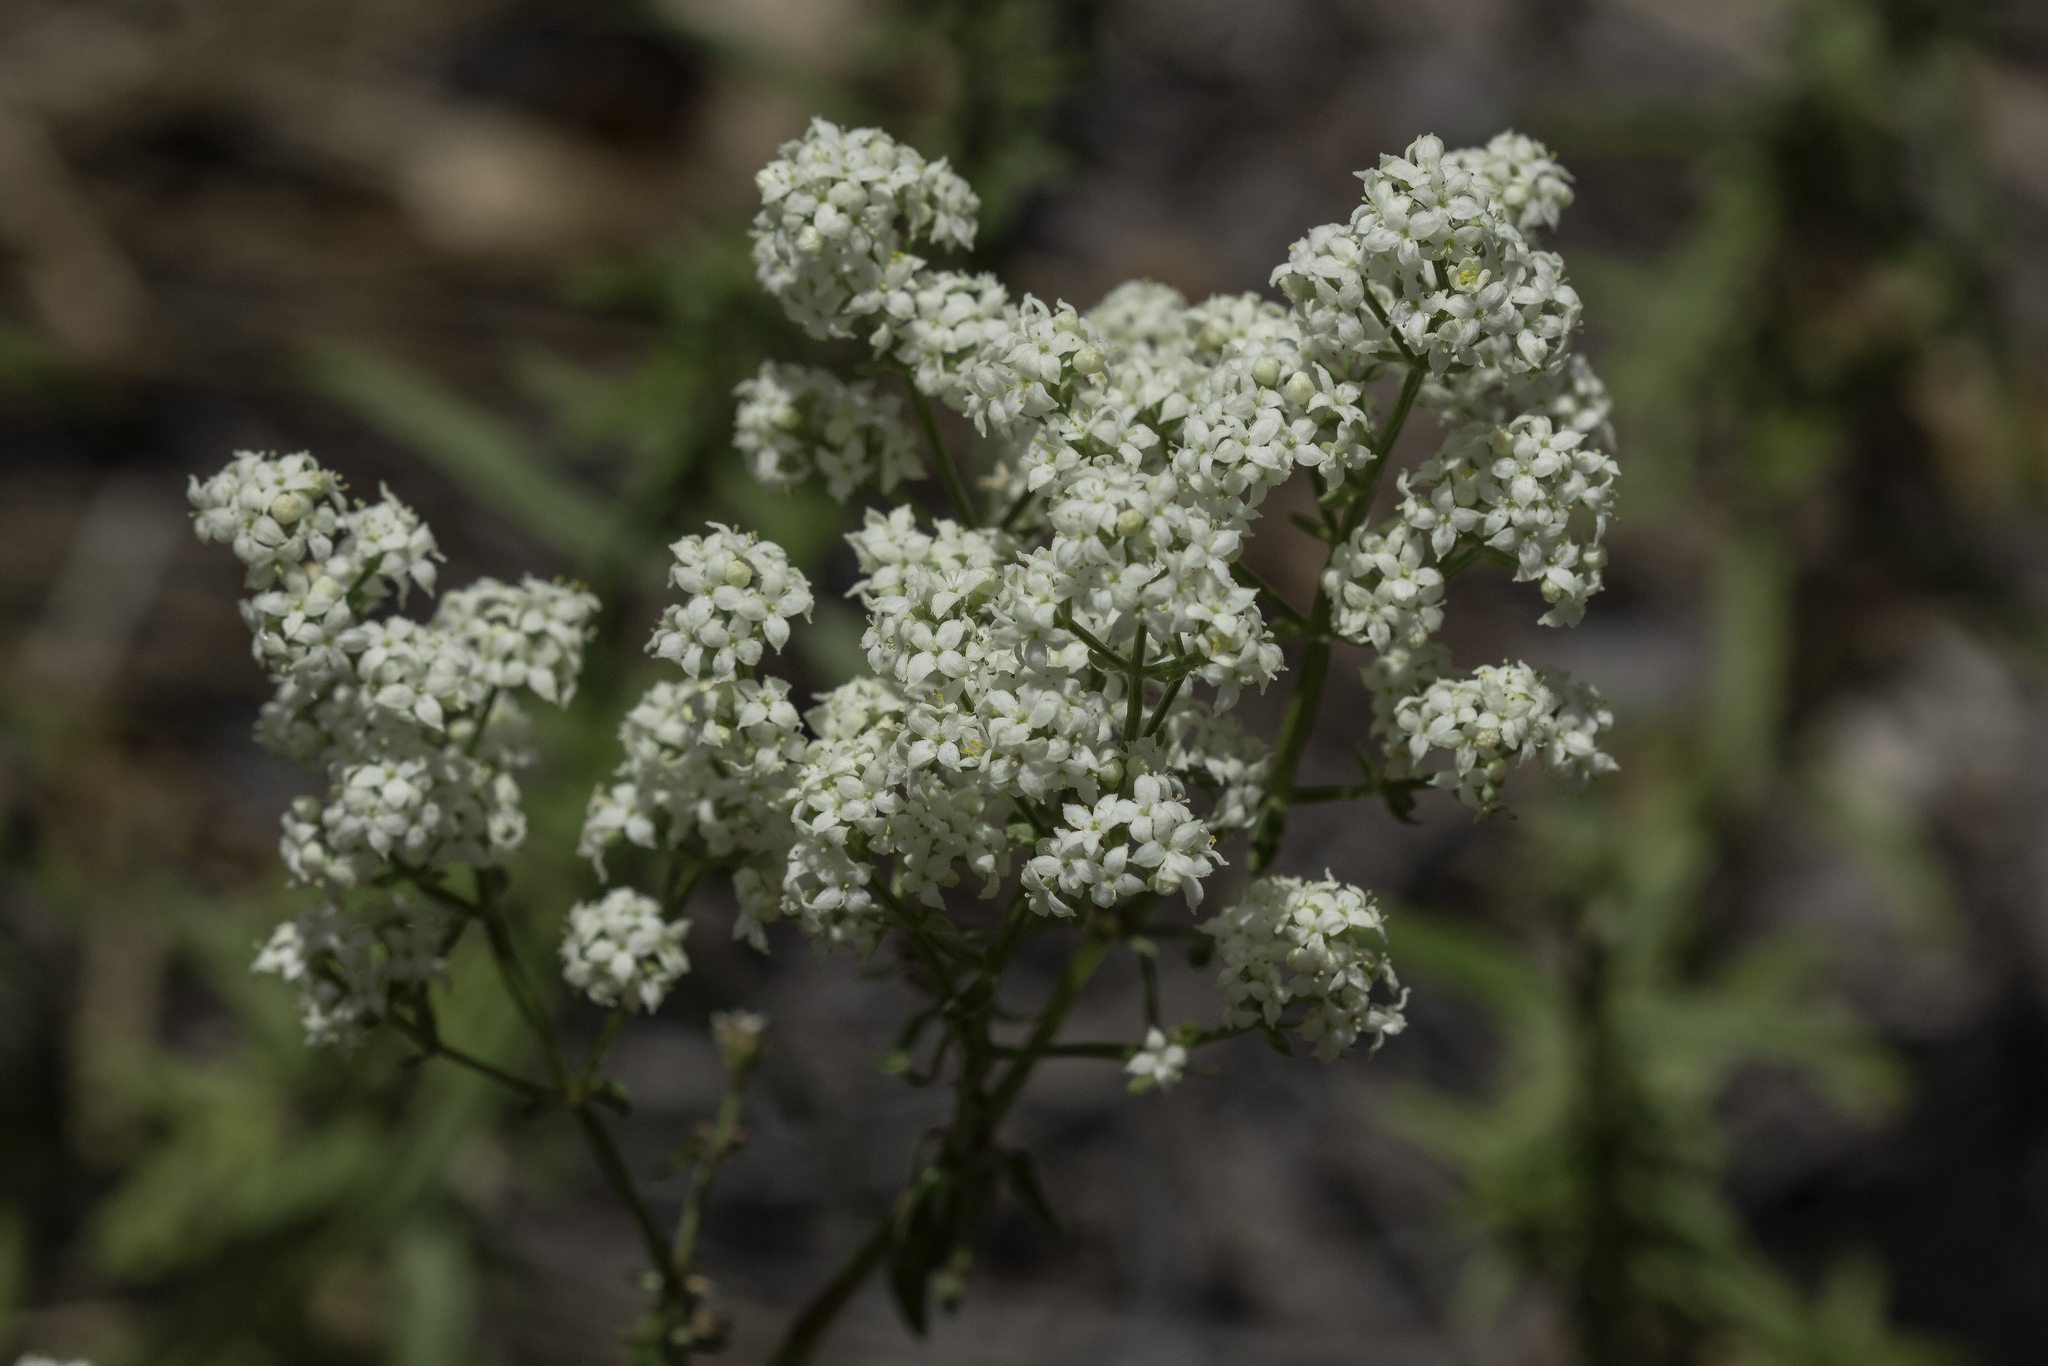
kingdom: Plantae
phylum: Tracheophyta
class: Magnoliopsida
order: Gentianales
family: Rubiaceae
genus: Galium
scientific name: Galium boreale
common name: Northern bedstraw
